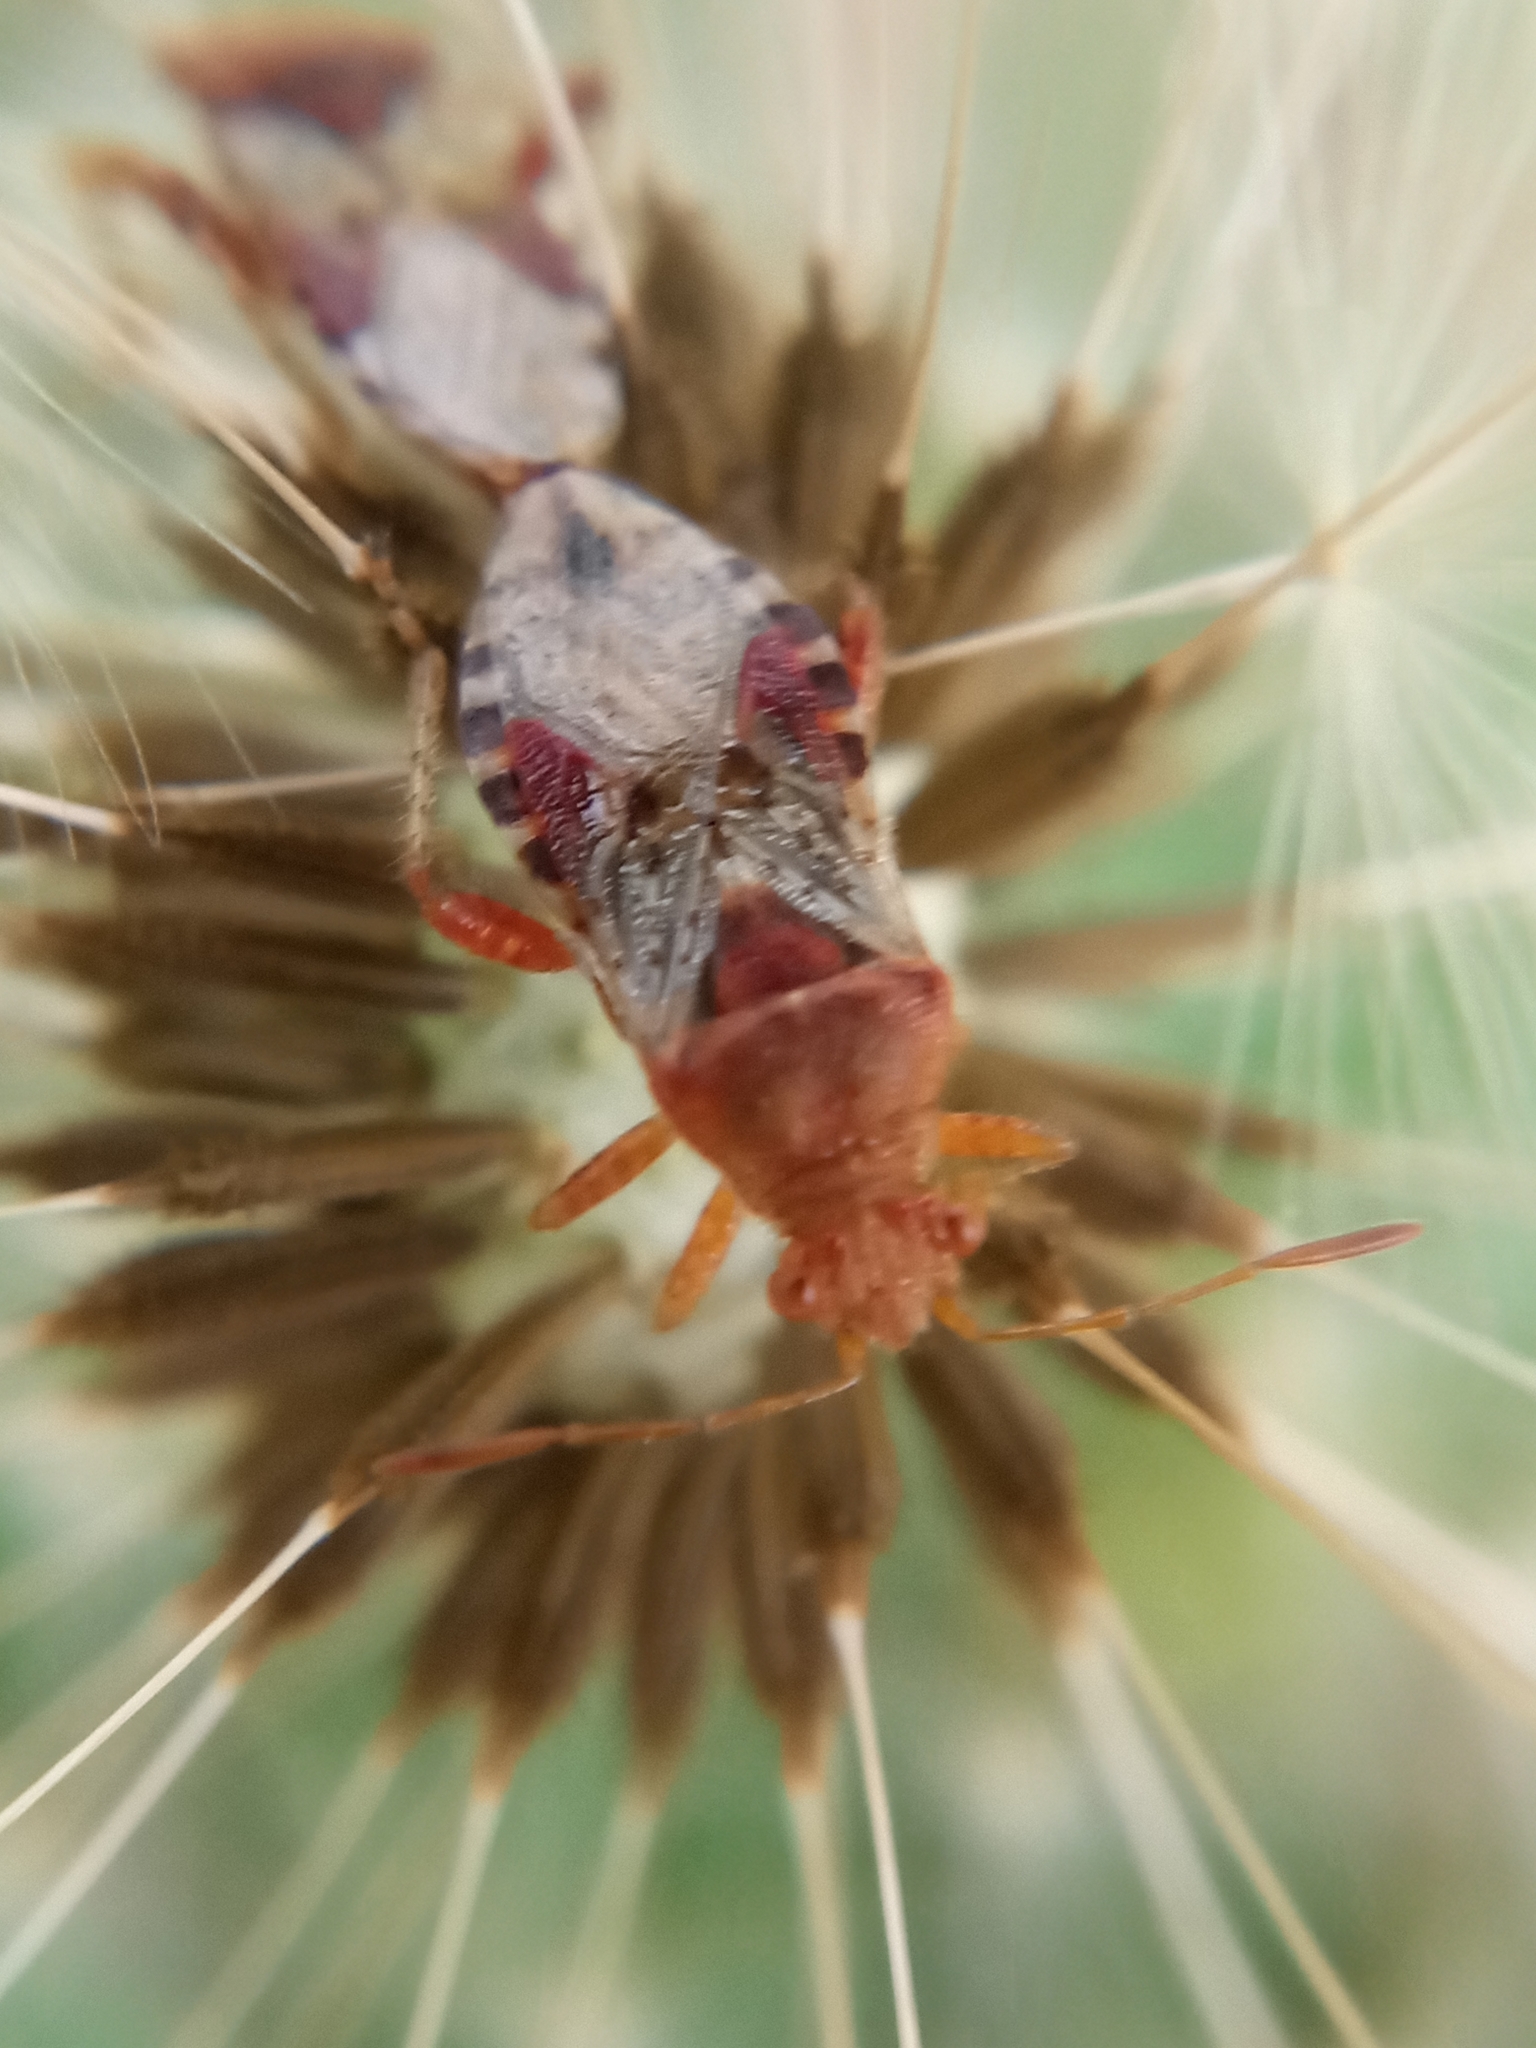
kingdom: Animalia
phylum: Arthropoda
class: Insecta
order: Hemiptera
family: Rhopalidae
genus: Rhopalus
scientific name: Rhopalus subrufus
